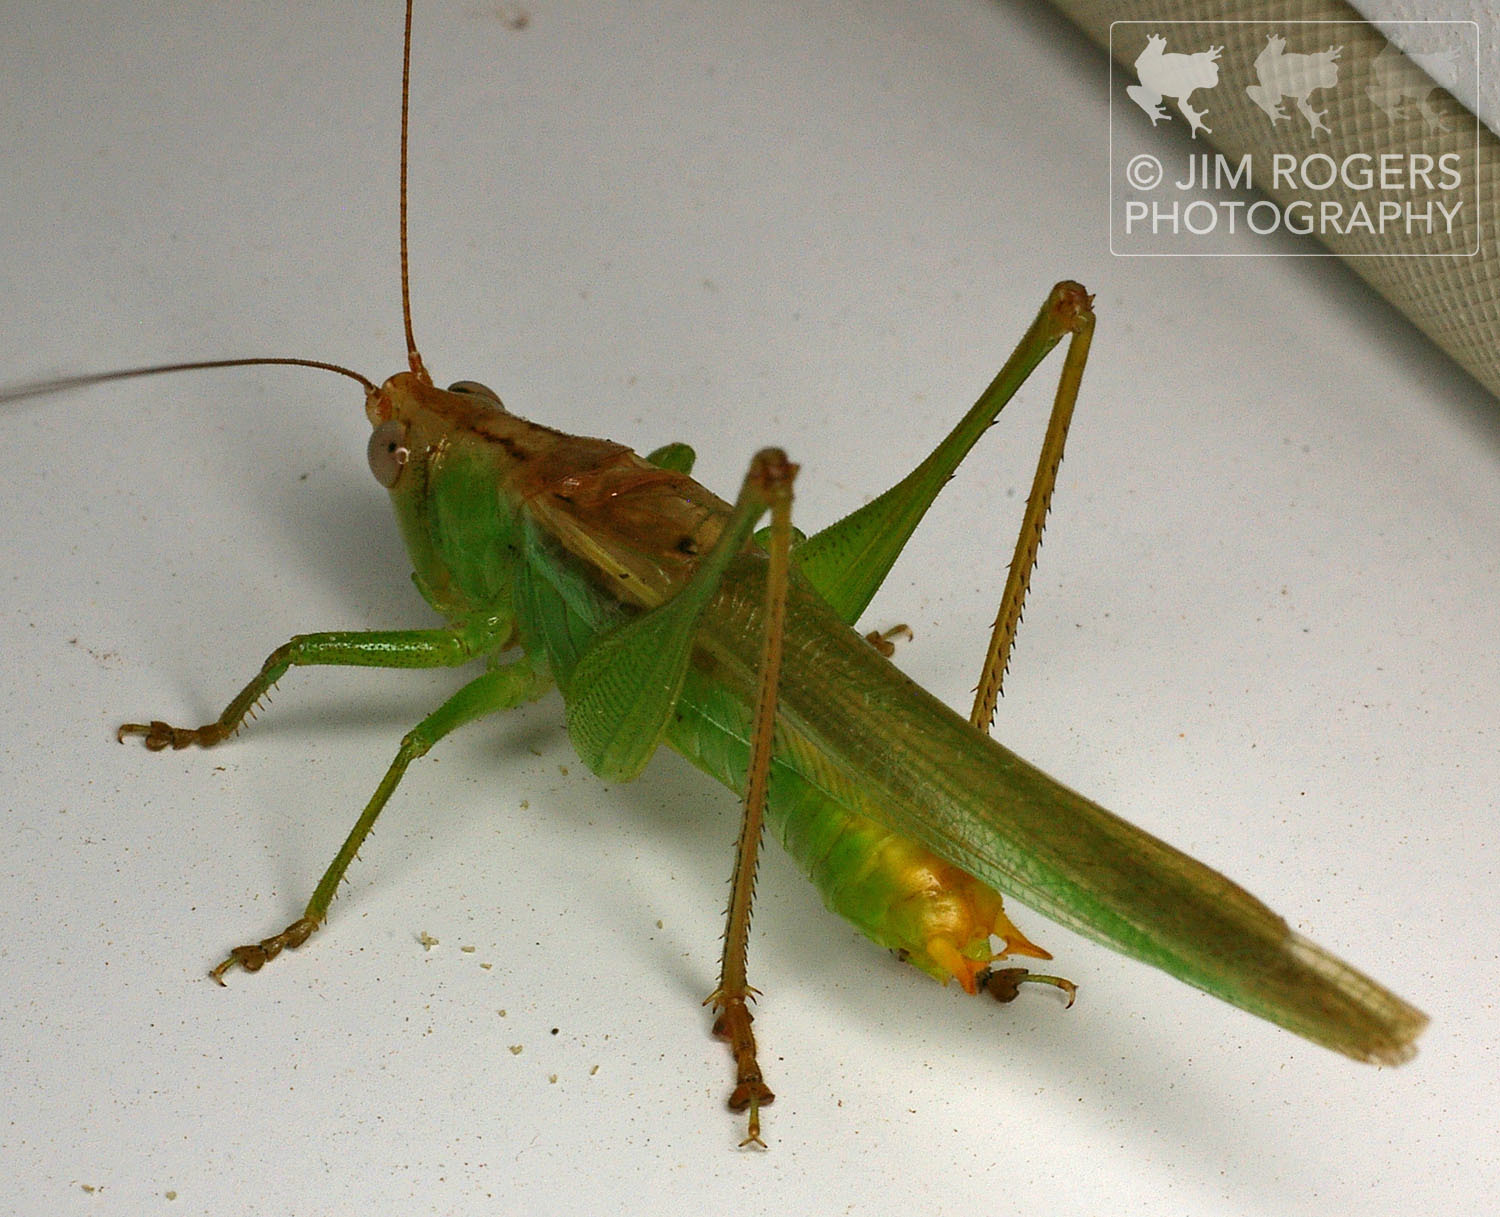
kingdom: Animalia
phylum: Arthropoda
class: Insecta
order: Orthoptera
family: Tettigoniidae
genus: Orchelimum
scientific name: Orchelimum agilis
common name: Agile meadow grasshopper
